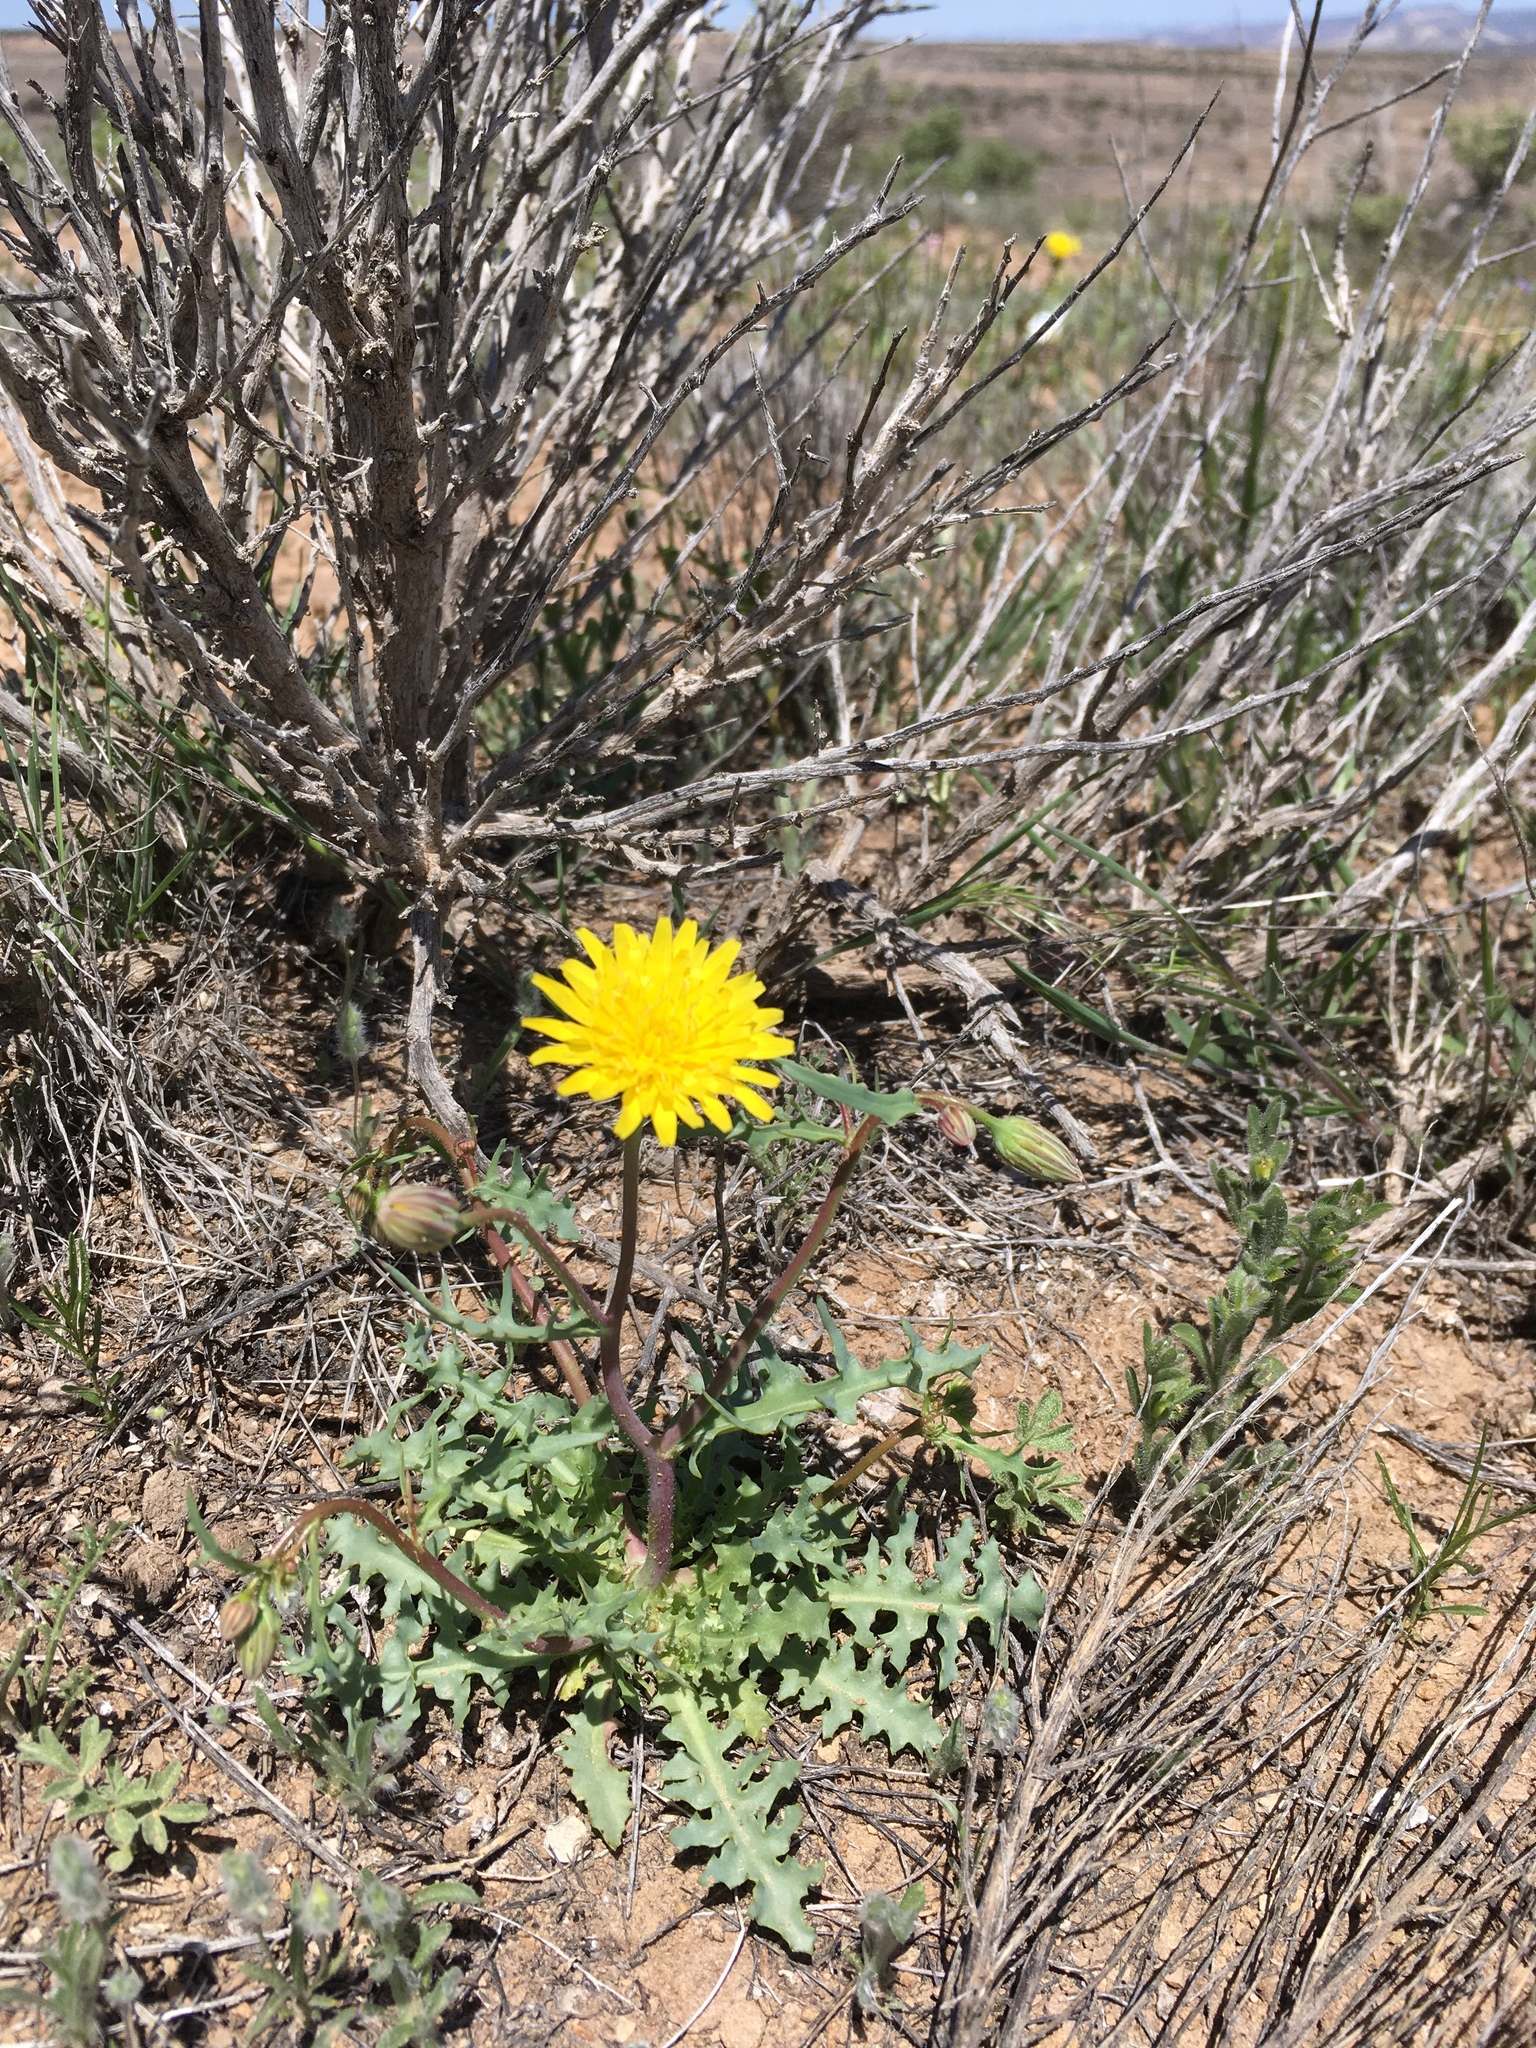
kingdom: Plantae
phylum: Tracheophyta
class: Magnoliopsida
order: Asterales
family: Asteraceae
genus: Malacothrix
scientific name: Malacothrix torreyi
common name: Torrey's desert-dandelion
